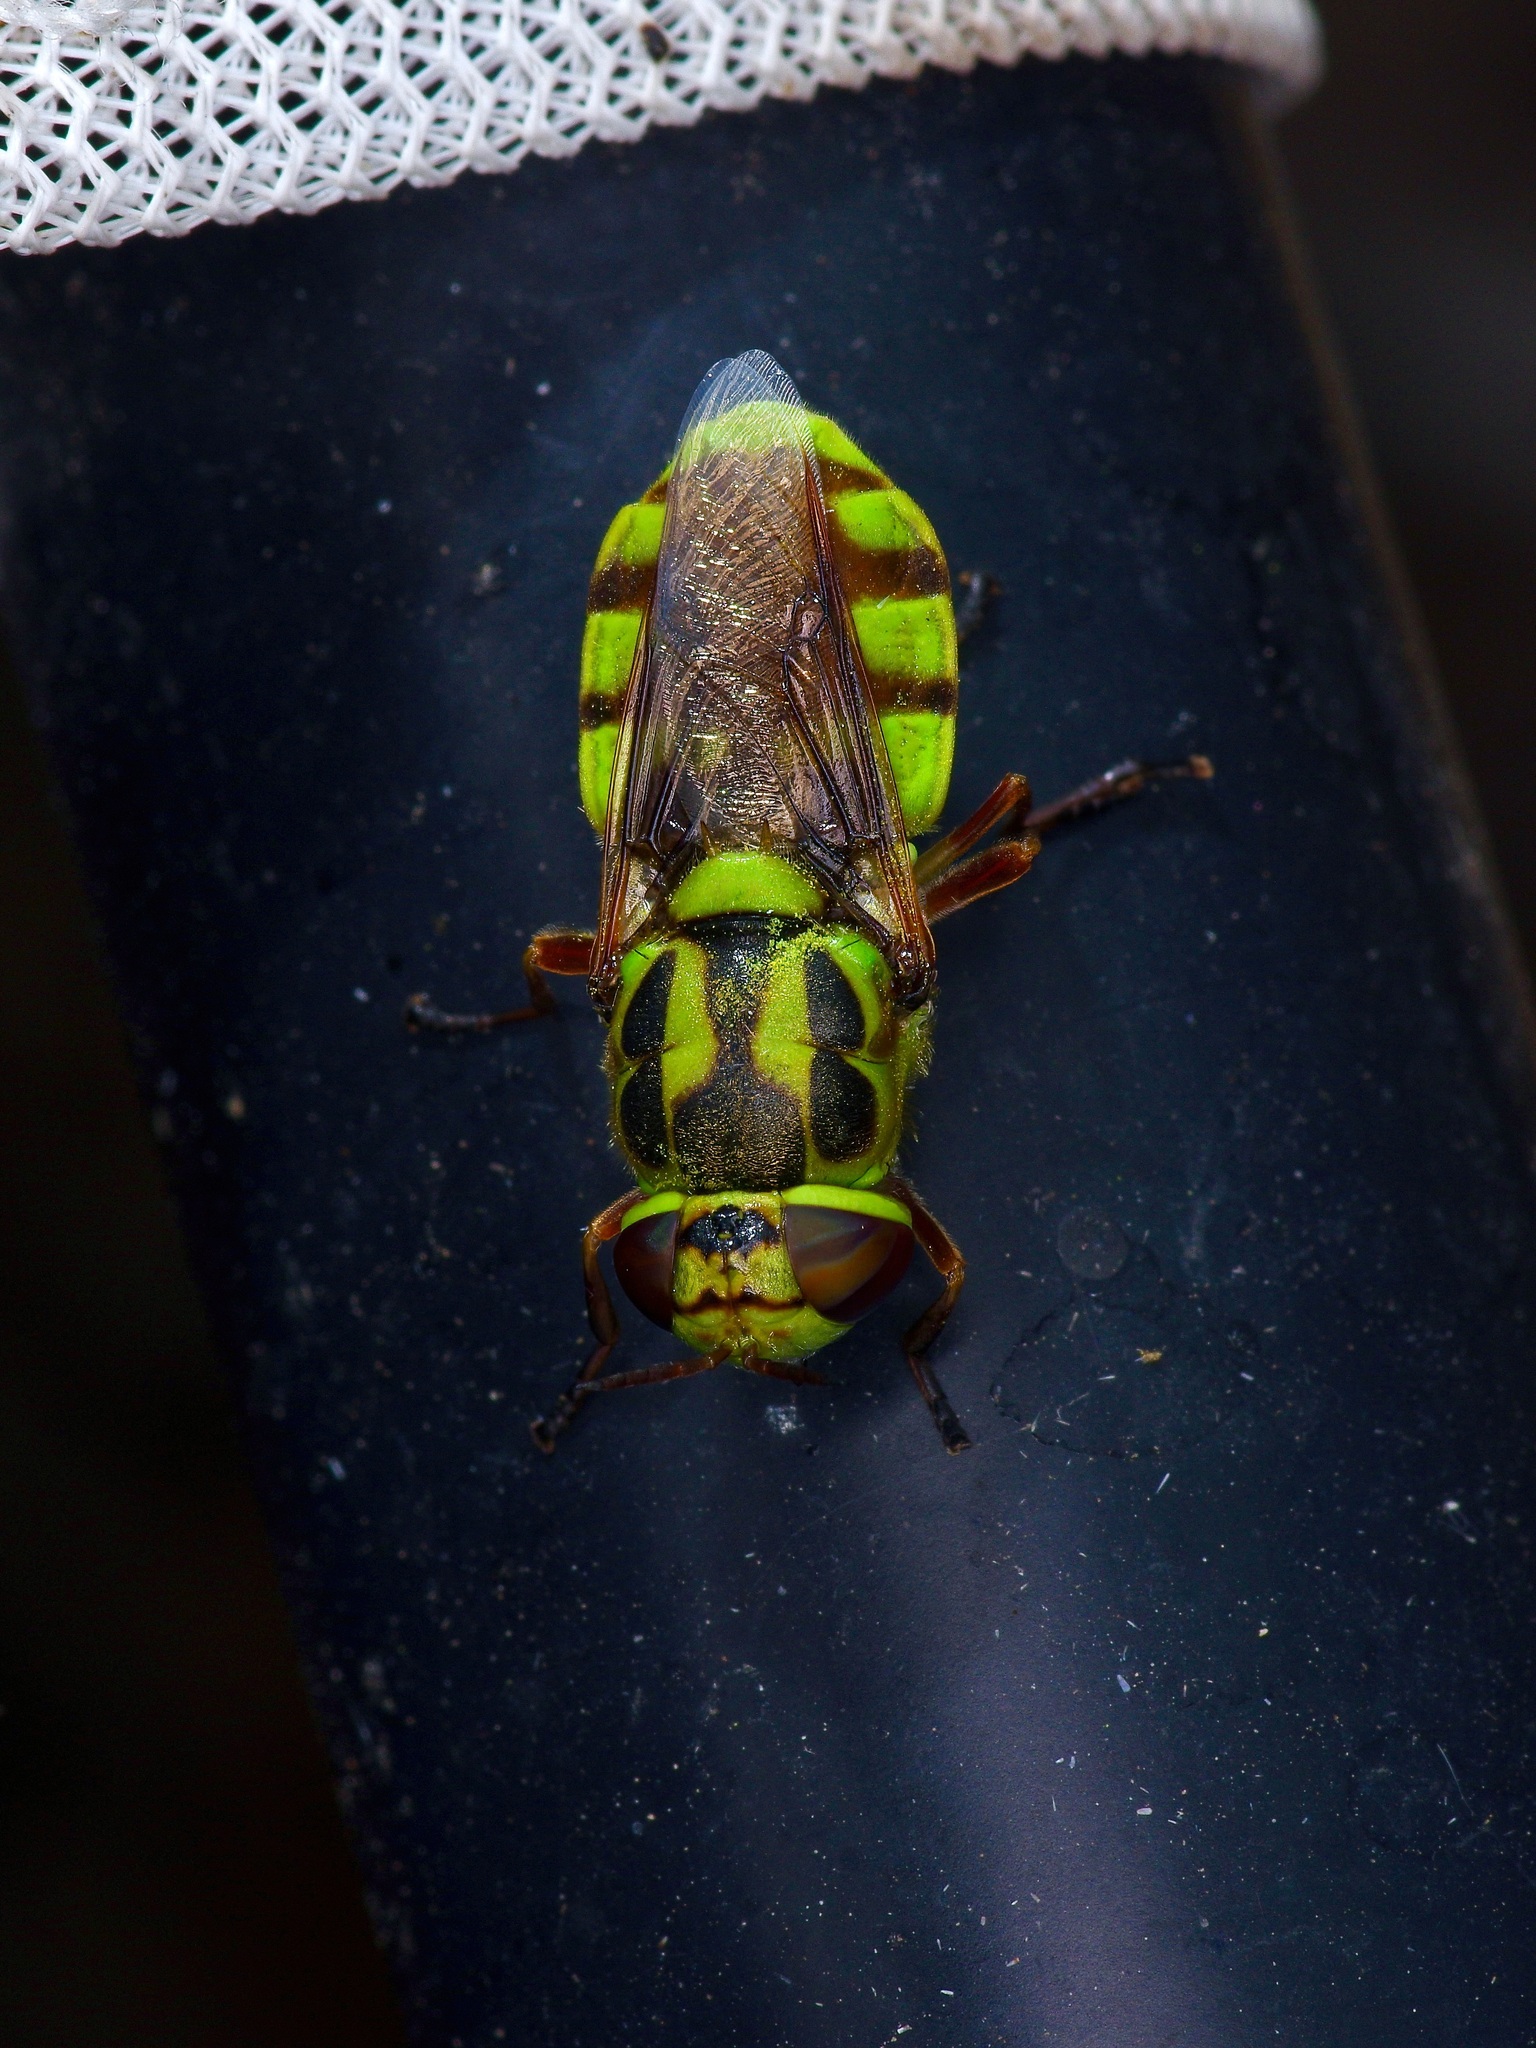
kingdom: Animalia
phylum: Arthropoda
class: Insecta
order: Diptera
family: Stratiomyidae
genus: Hedriodiscus
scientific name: Hedriodiscus binotatus
